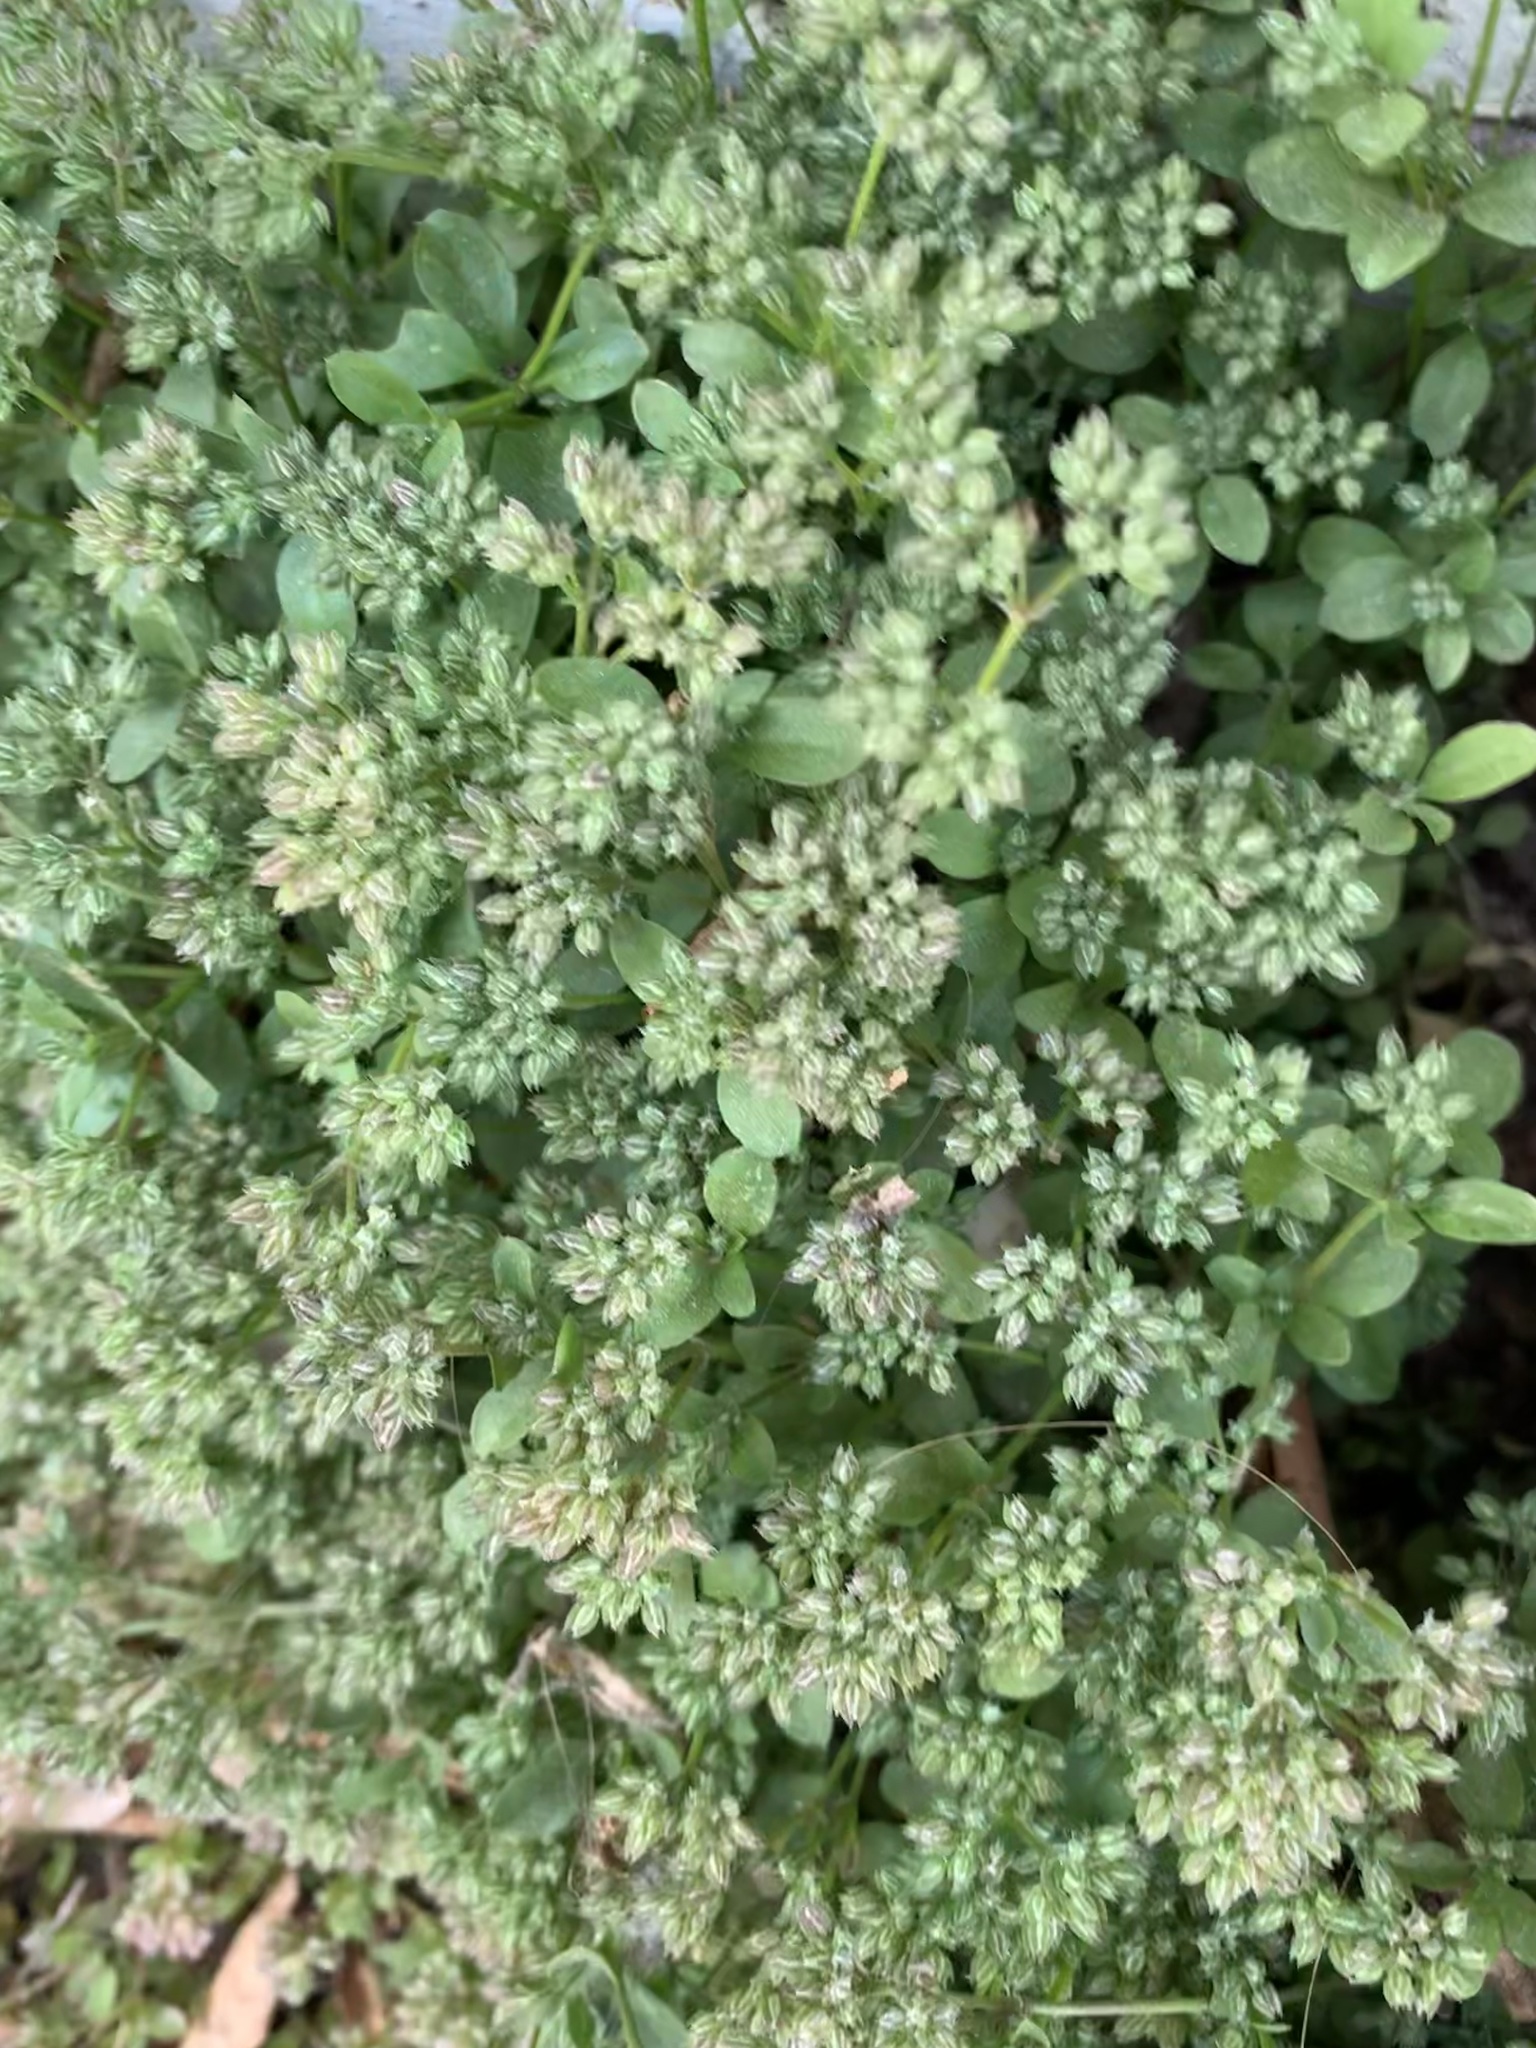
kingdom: Plantae
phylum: Tracheophyta
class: Magnoliopsida
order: Caryophyllales
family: Caryophyllaceae
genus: Polycarpon
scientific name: Polycarpon tetraphyllum
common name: Four-leaved all-seed
